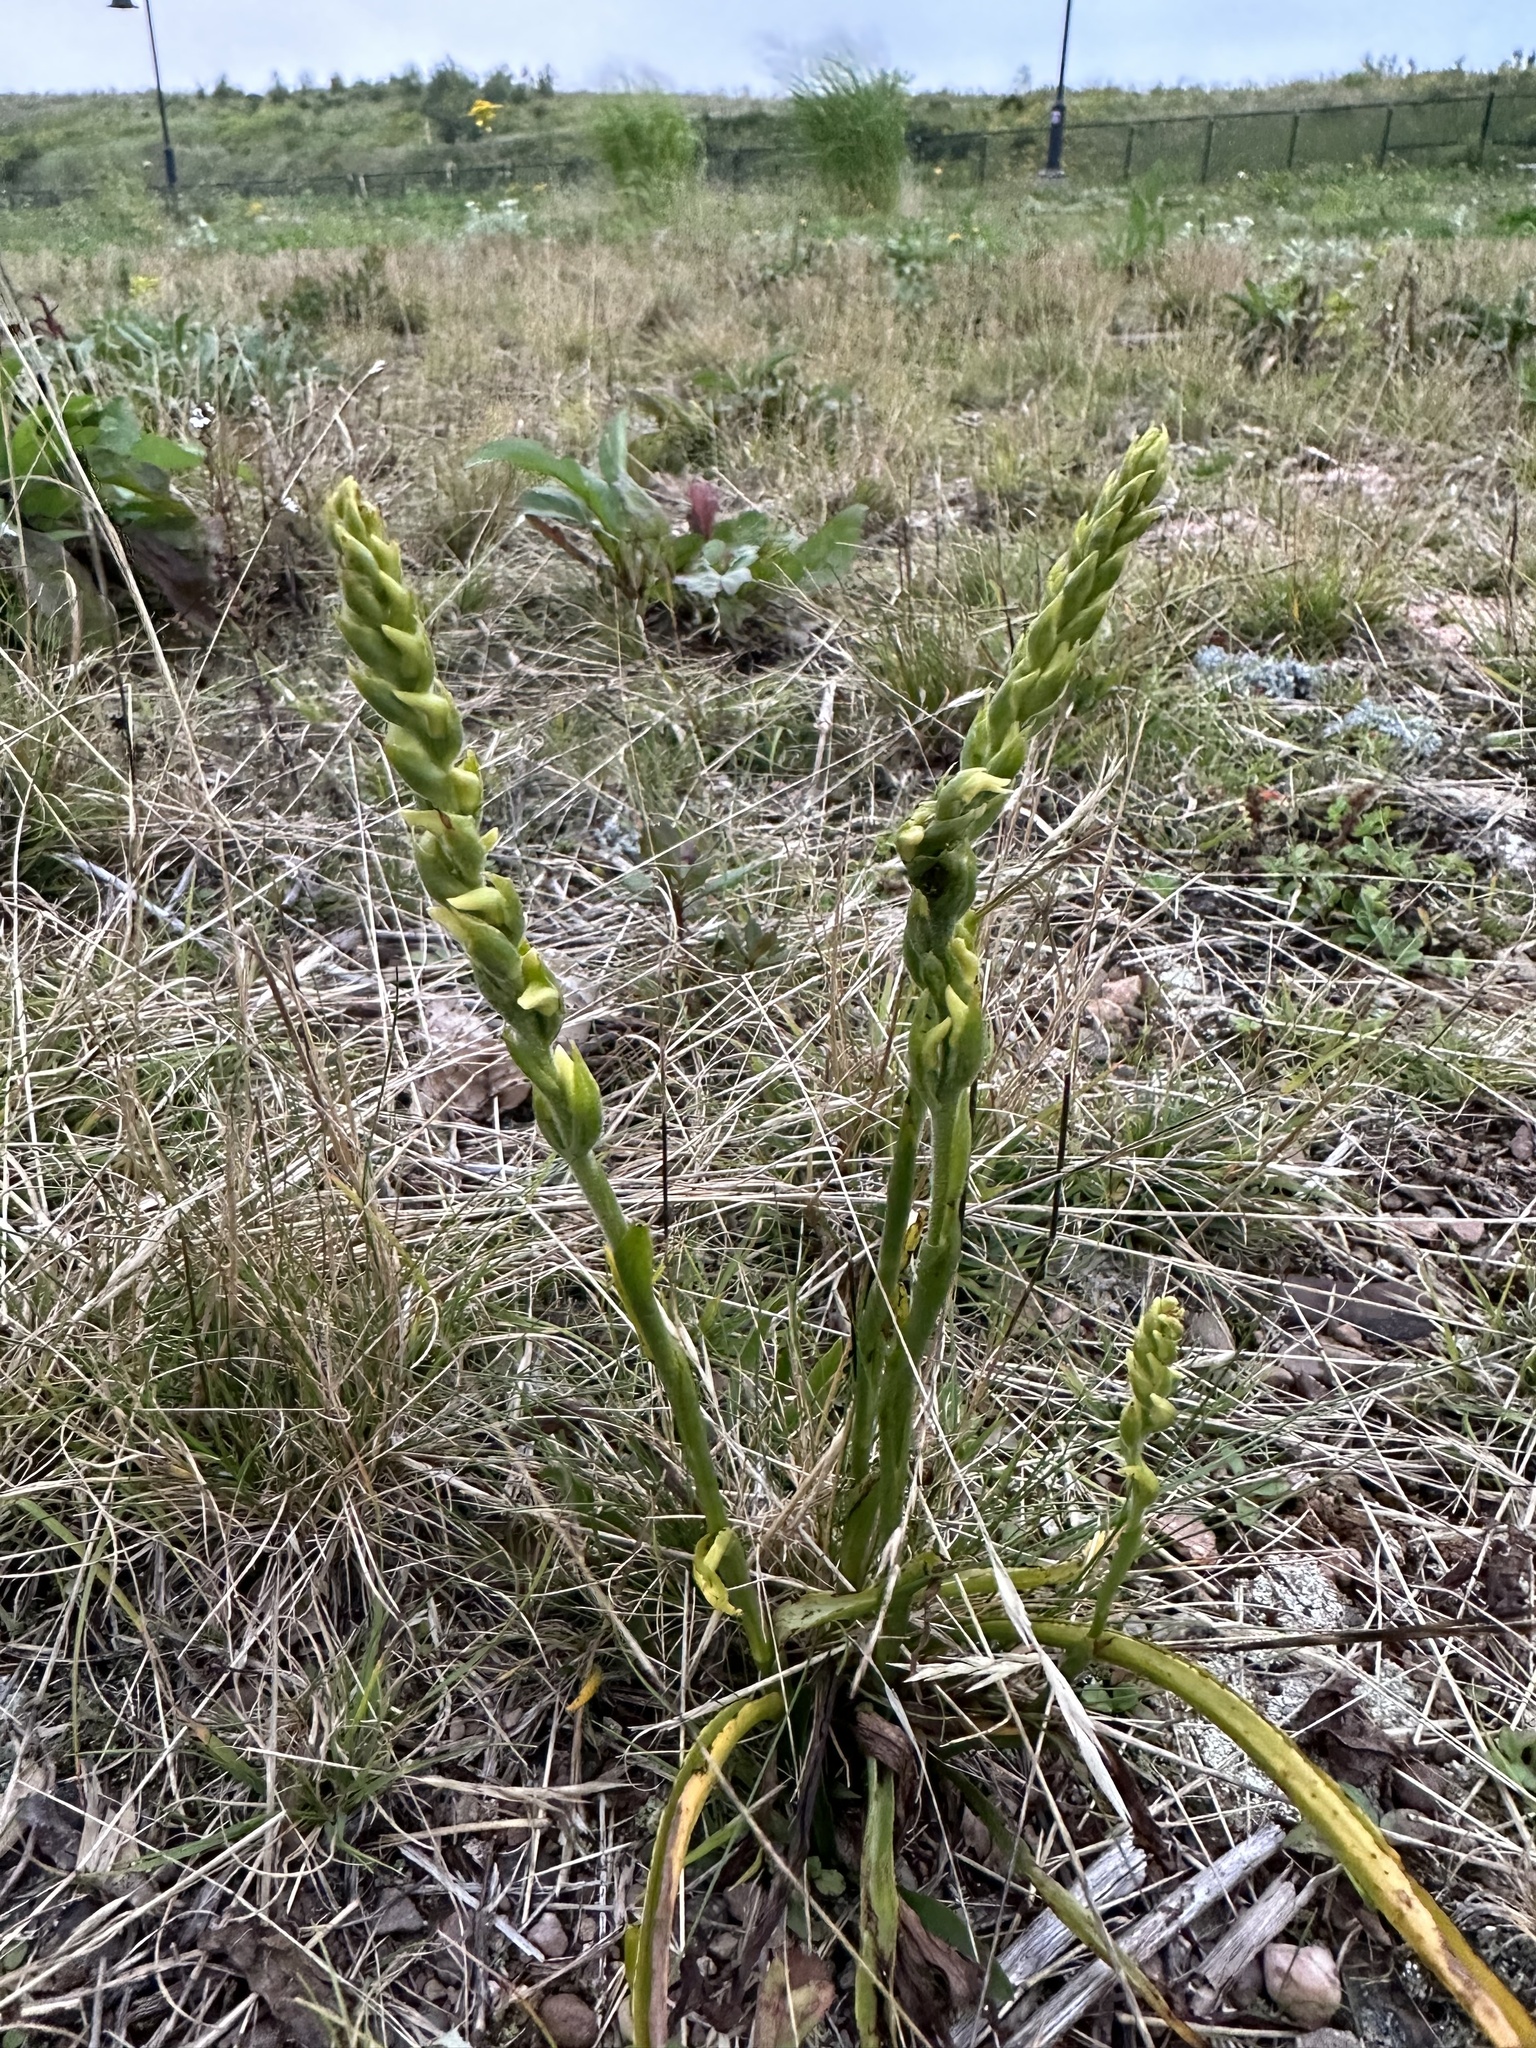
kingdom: Plantae
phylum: Tracheophyta
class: Liliopsida
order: Asparagales
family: Orchidaceae
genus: Spiranthes
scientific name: Spiranthes ochroleuca
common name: Yellow ladies'-tresses
